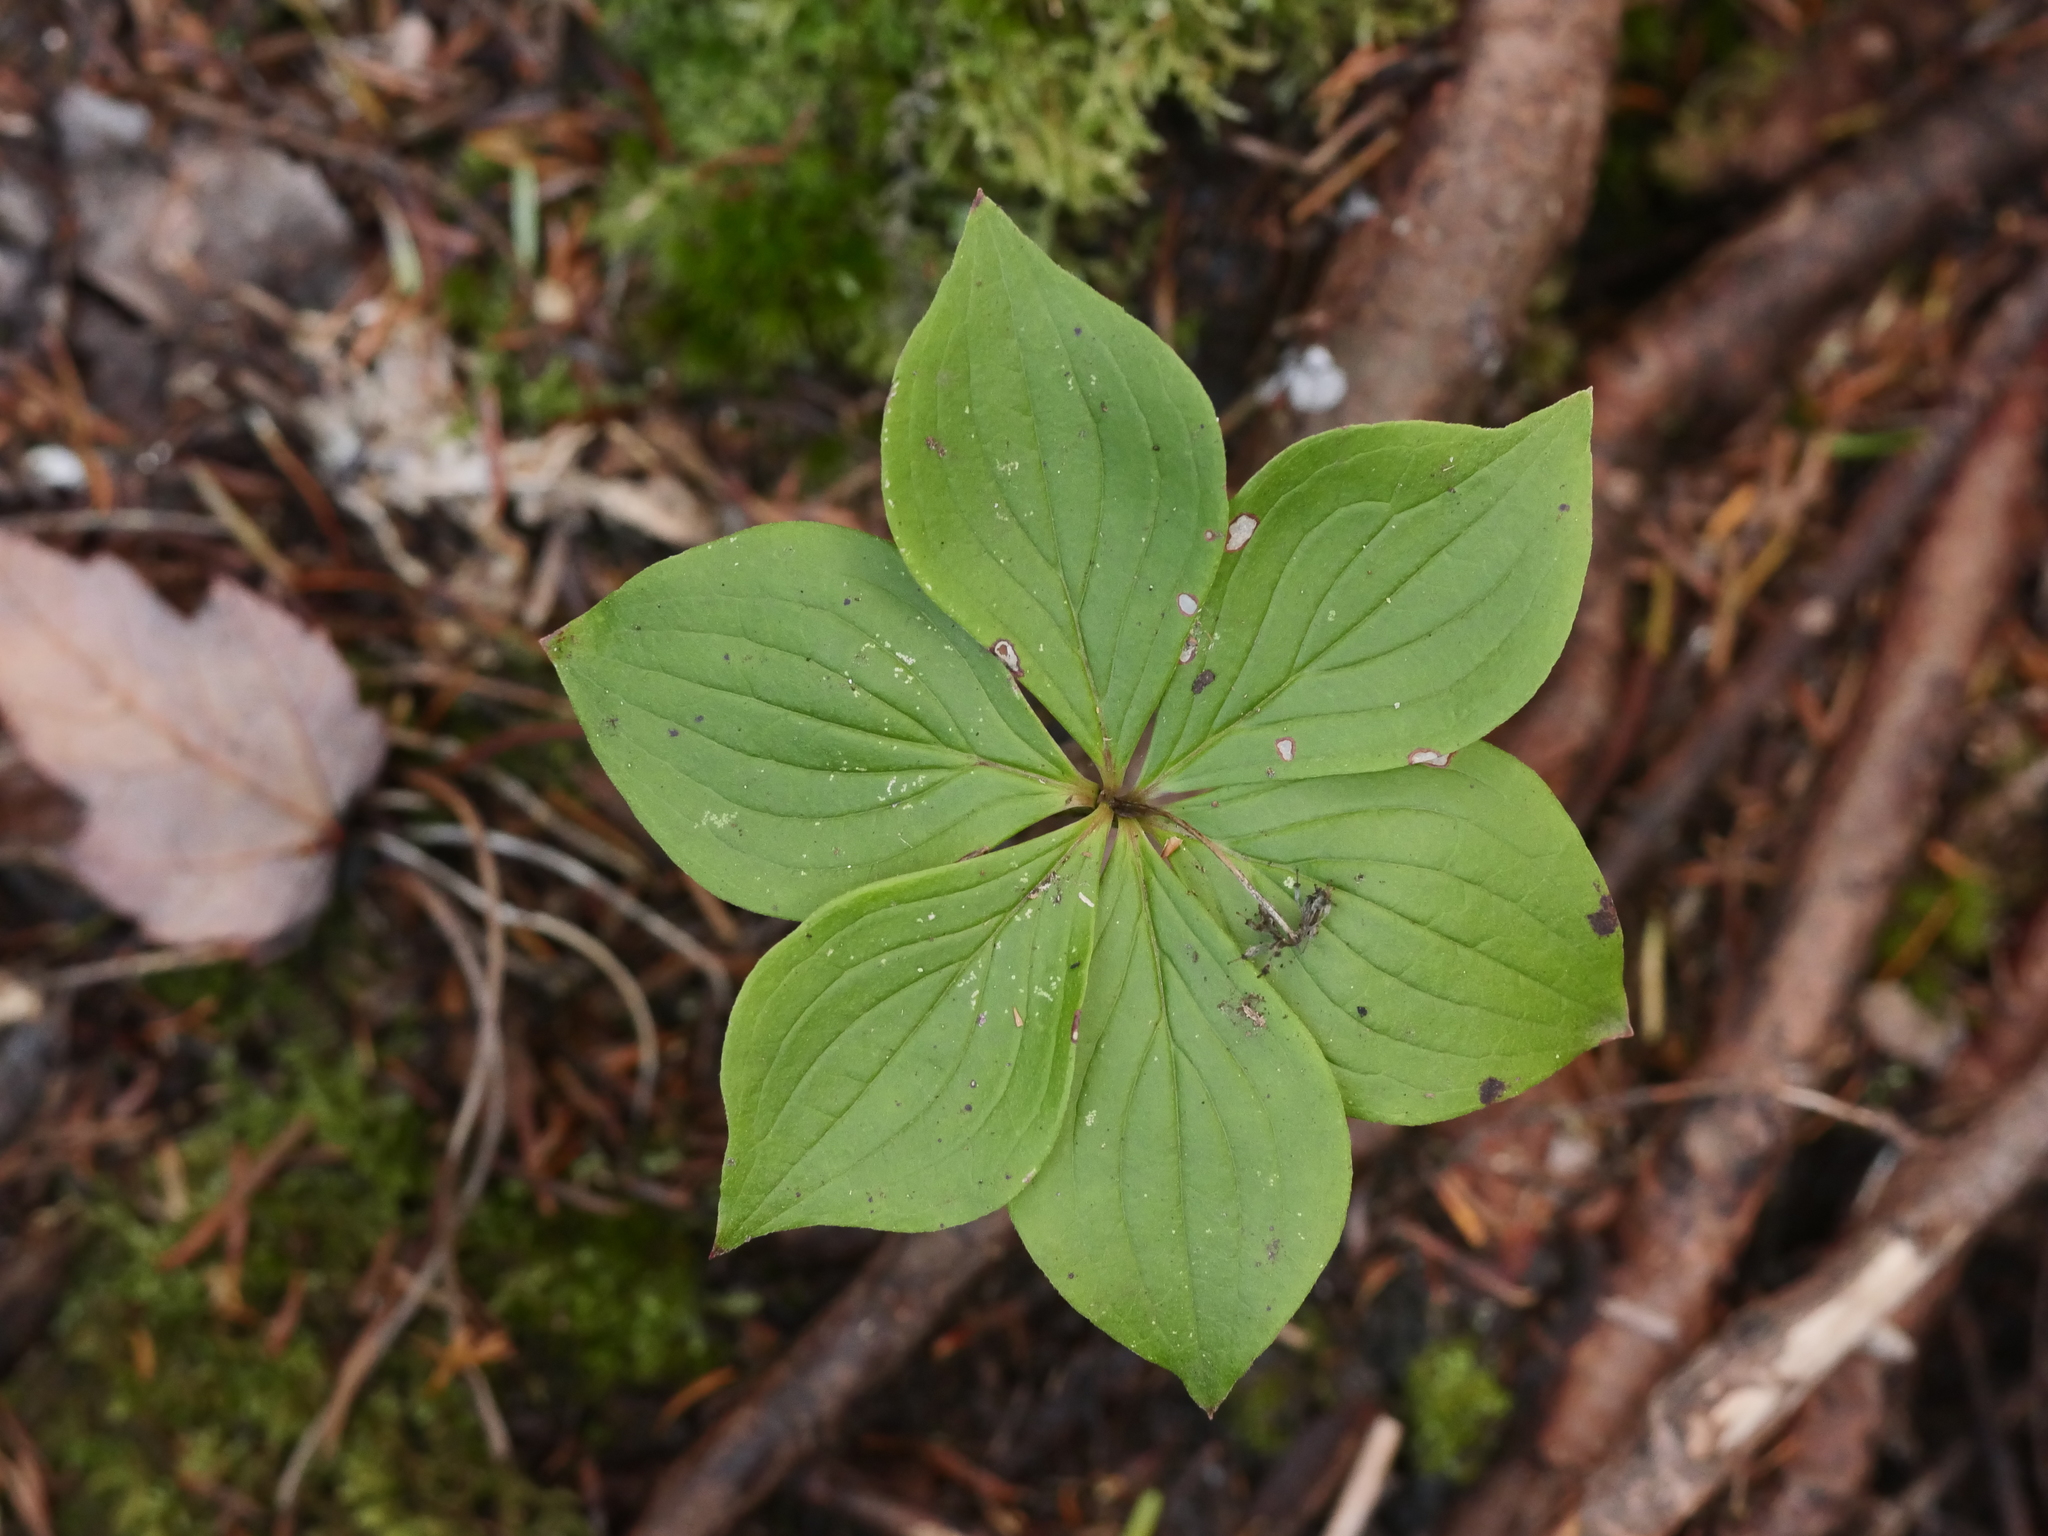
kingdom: Plantae
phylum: Tracheophyta
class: Magnoliopsida
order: Cornales
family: Cornaceae
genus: Cornus
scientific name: Cornus canadensis
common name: Creeping dogwood
